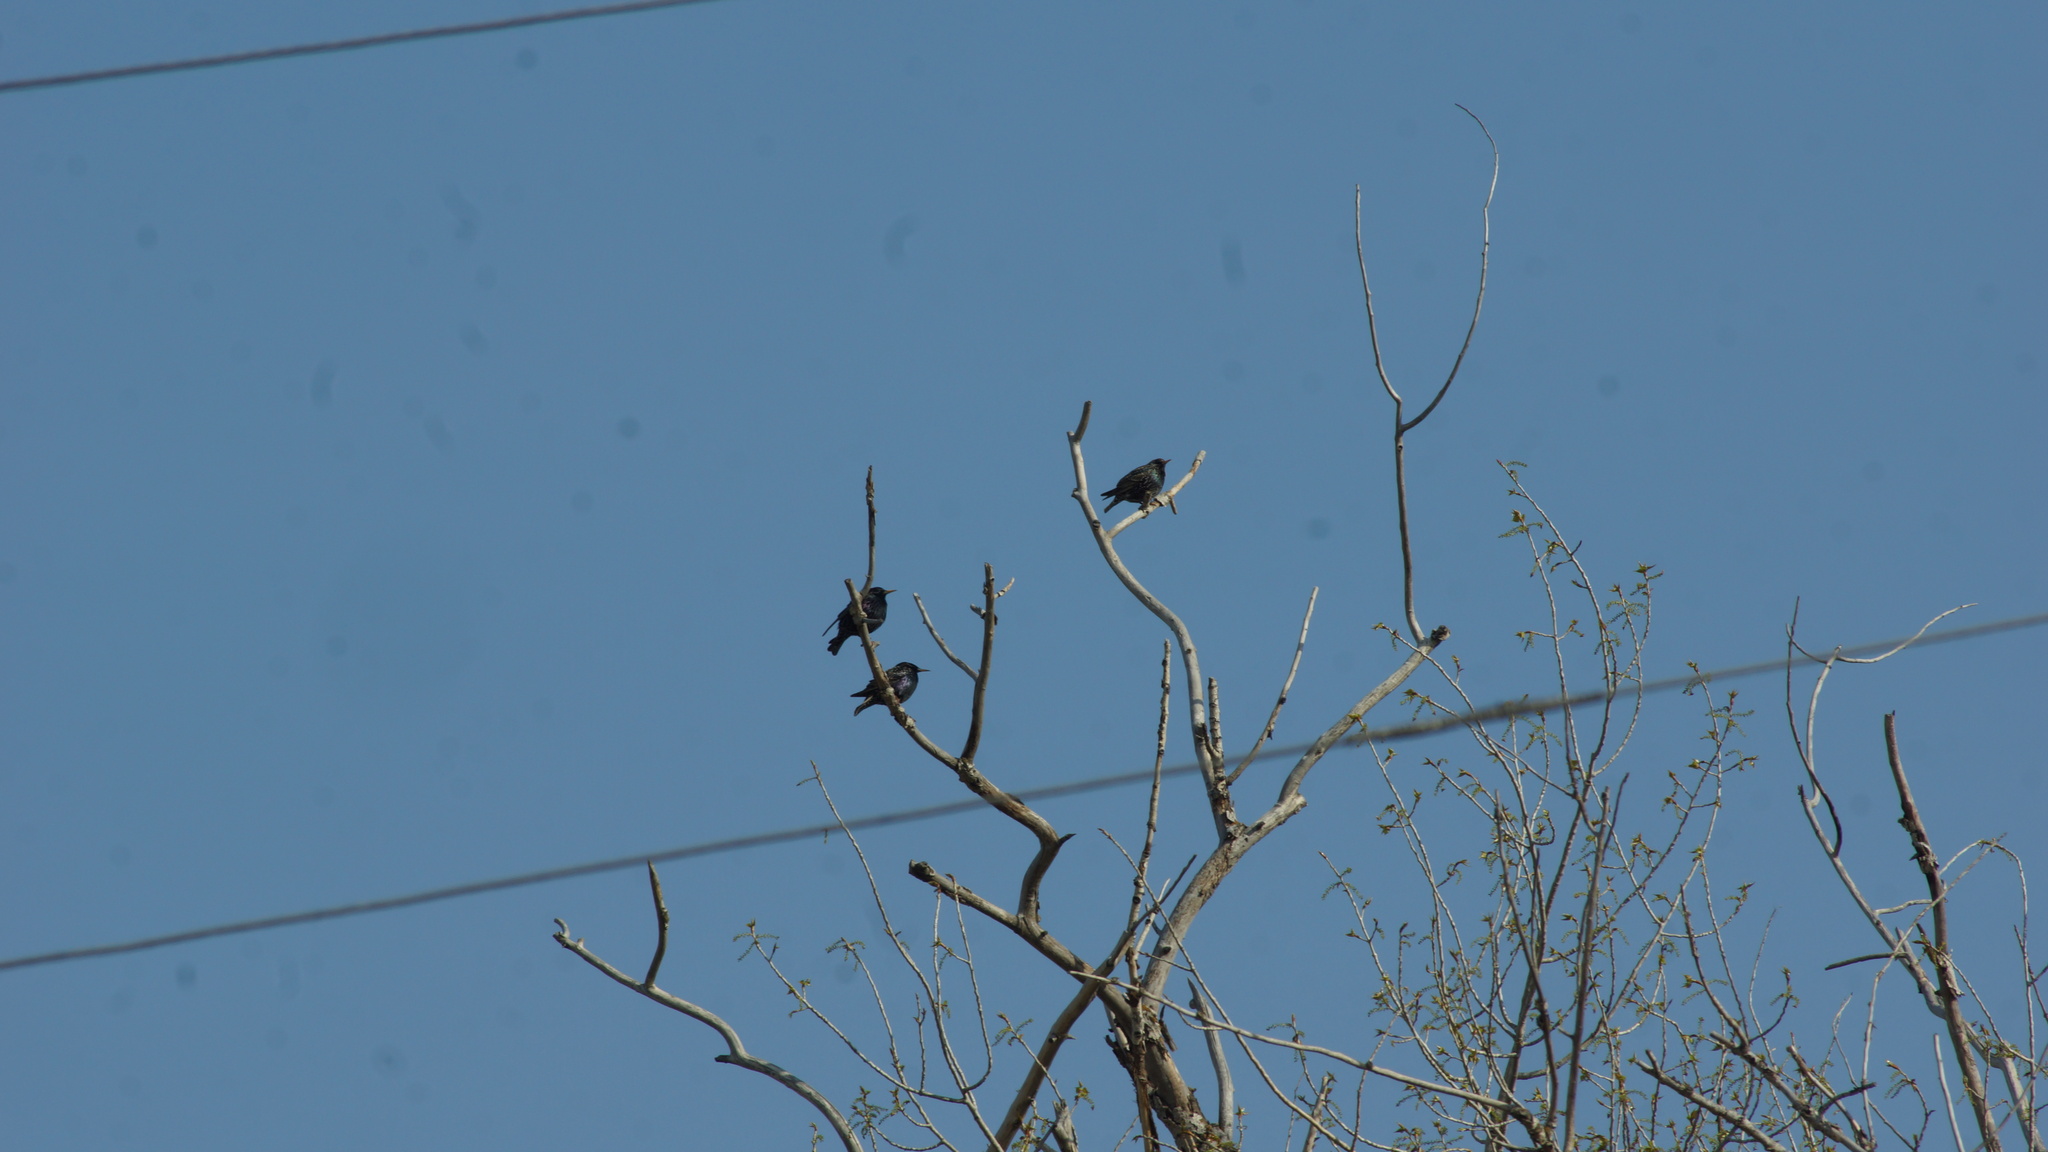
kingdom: Animalia
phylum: Chordata
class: Aves
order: Passeriformes
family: Sturnidae
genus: Sturnus
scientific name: Sturnus vulgaris
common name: Common starling
